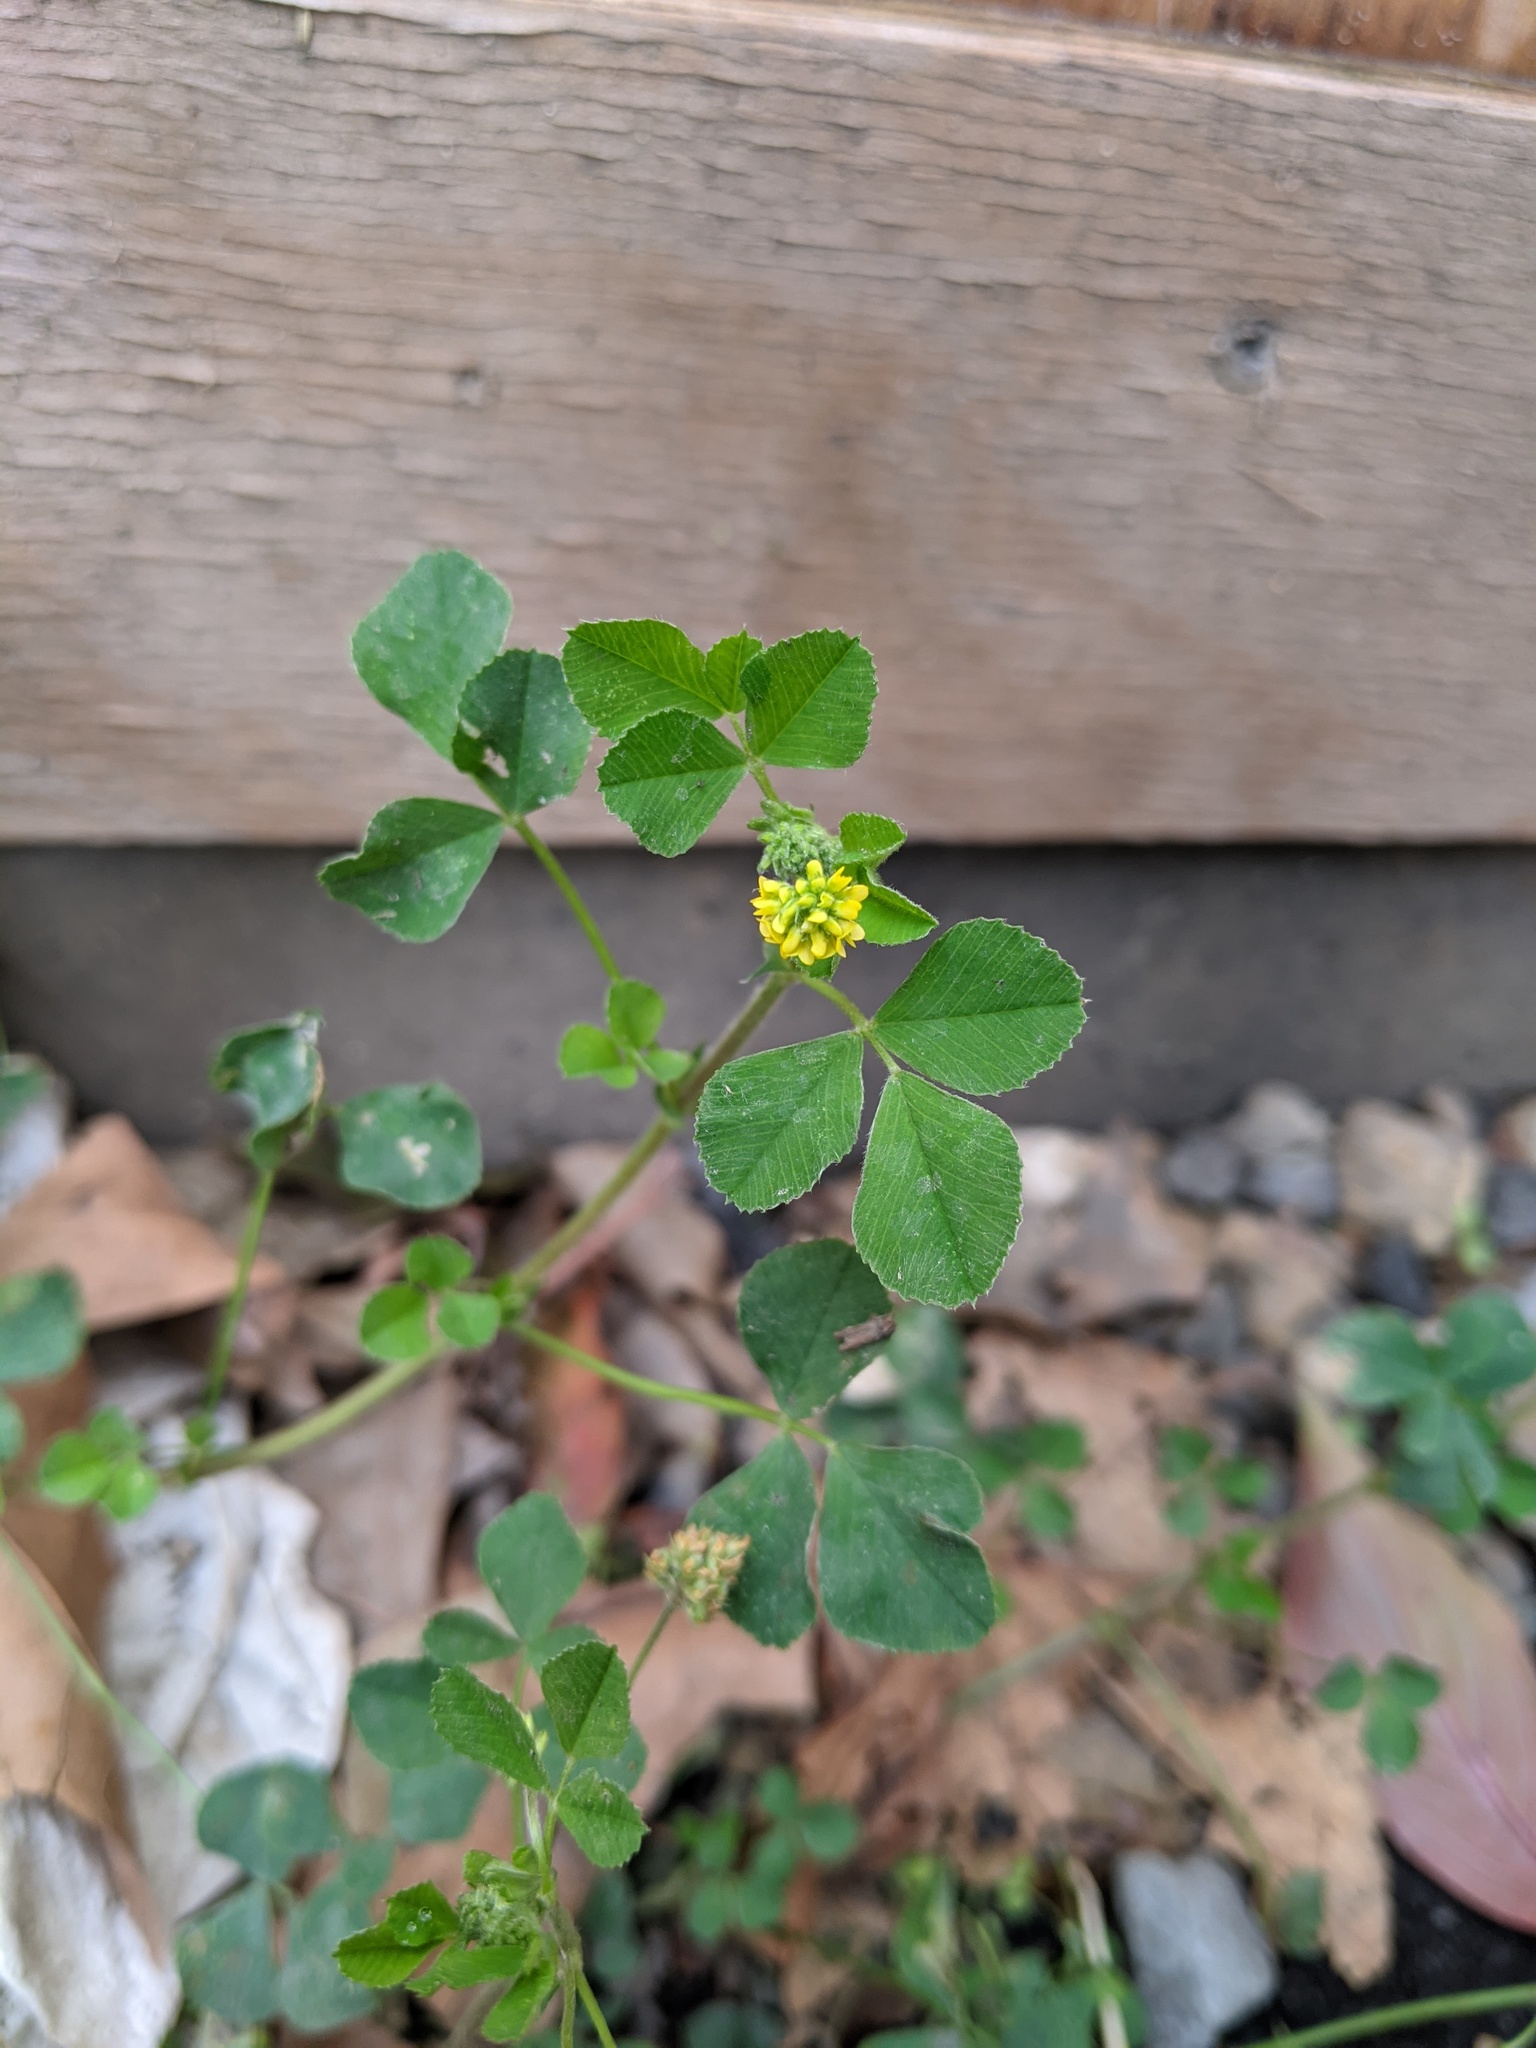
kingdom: Plantae
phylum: Tracheophyta
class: Magnoliopsida
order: Fabales
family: Fabaceae
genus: Medicago
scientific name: Medicago lupulina
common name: Black medick
